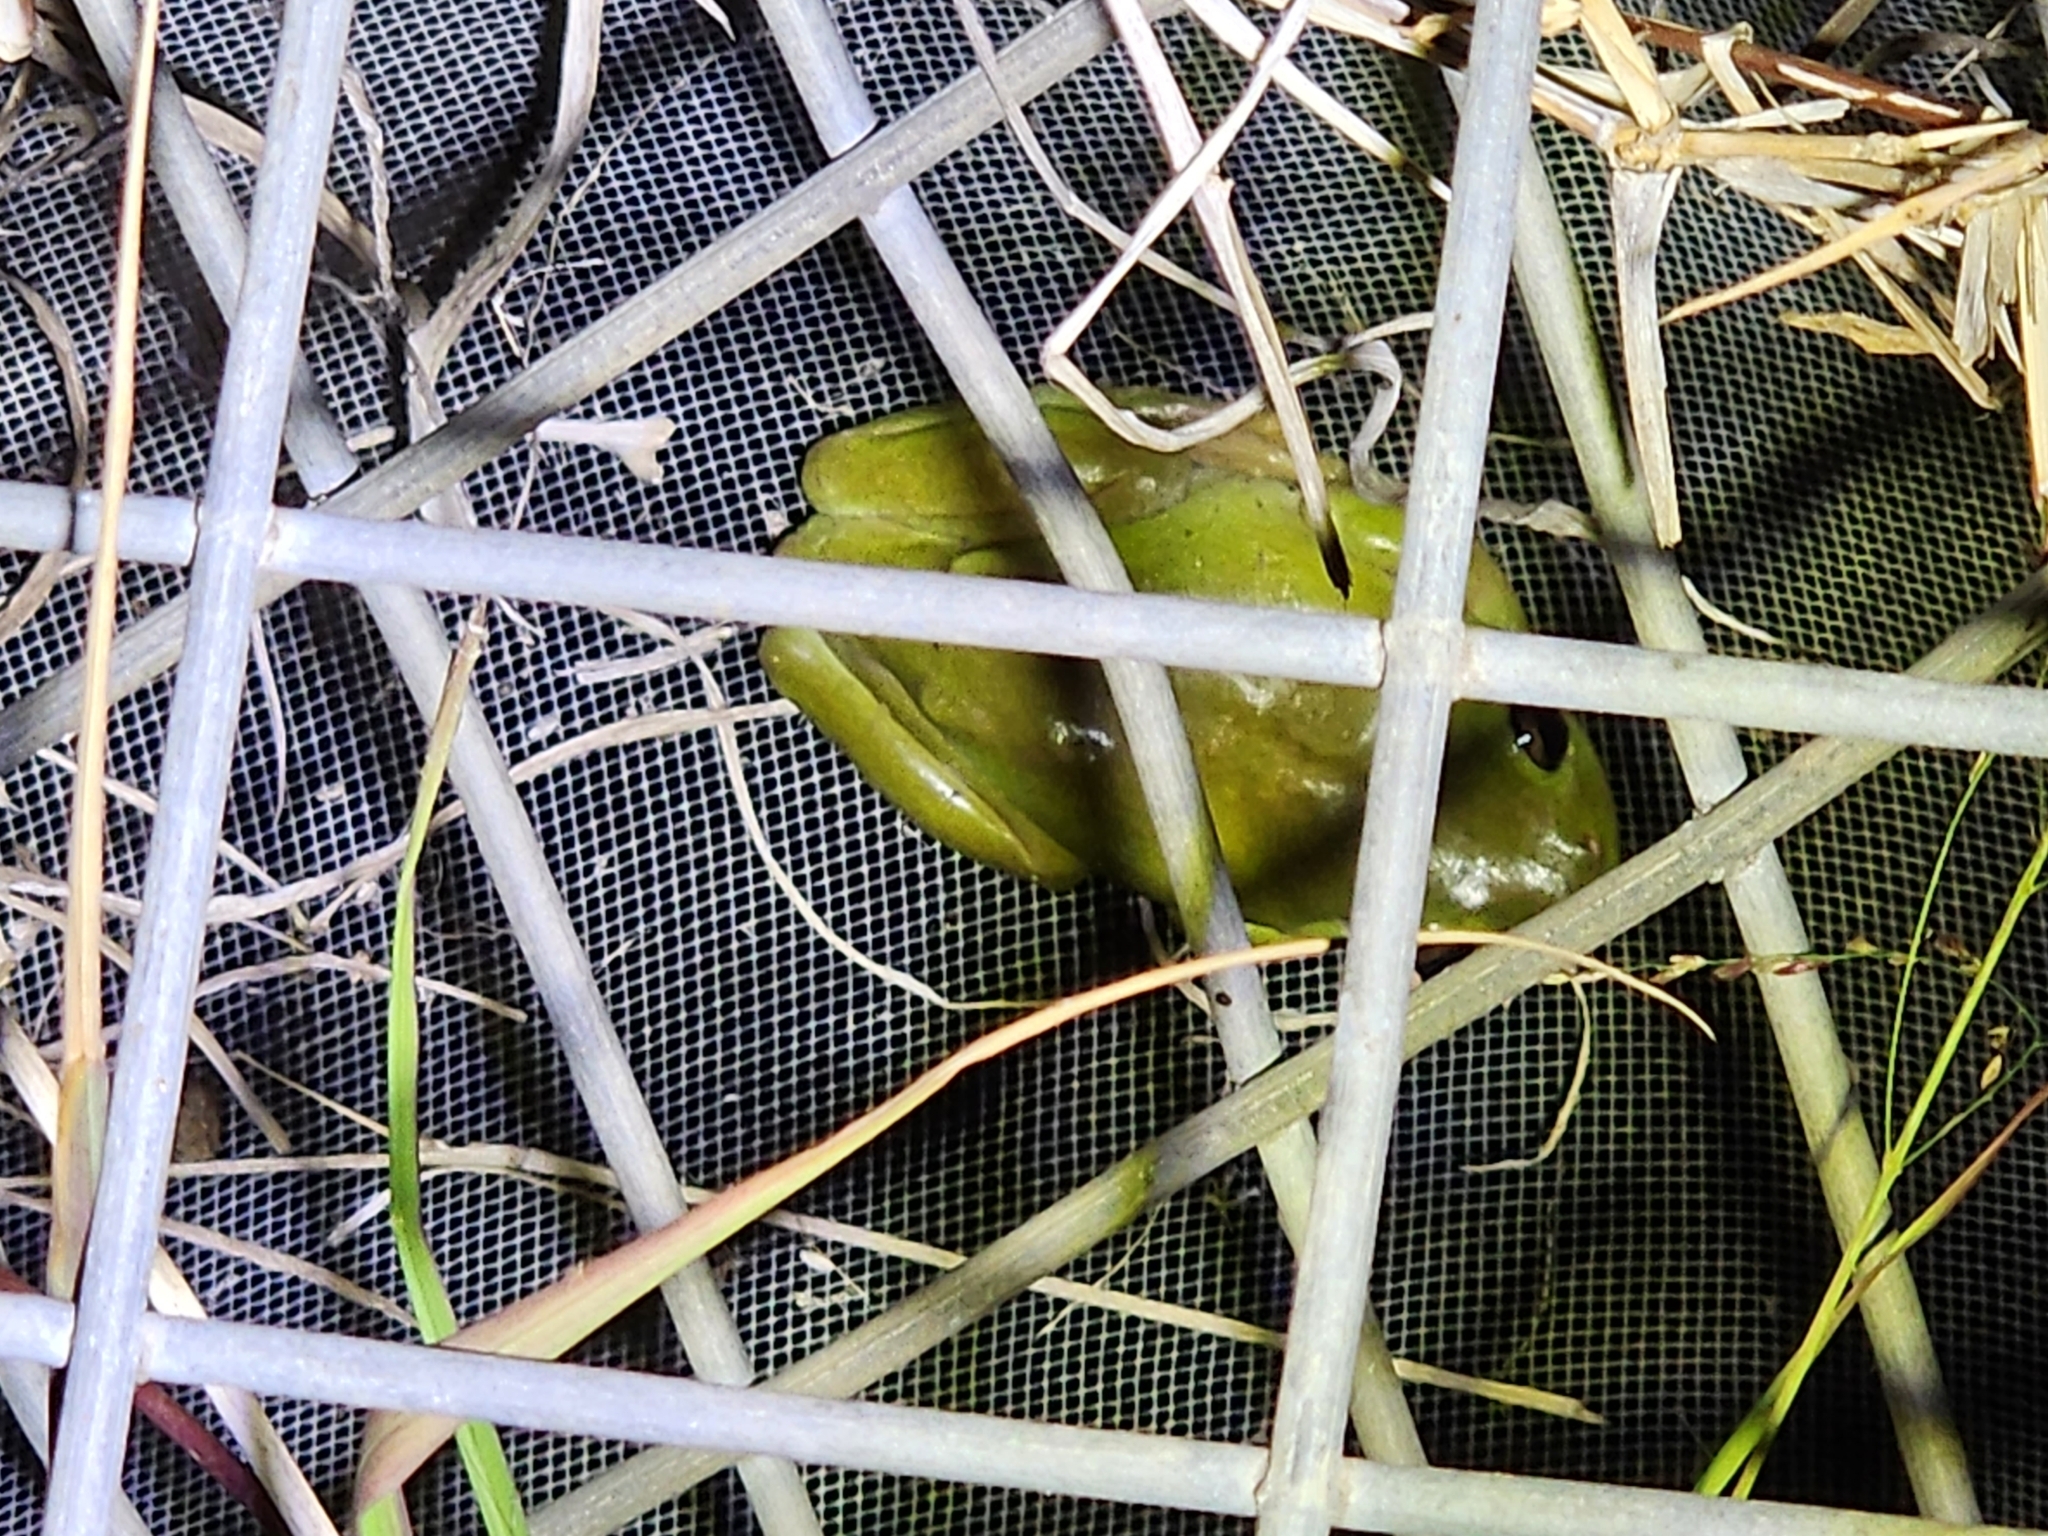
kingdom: Animalia
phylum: Chordata
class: Amphibia
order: Anura
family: Pelodryadidae
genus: Ranoidea
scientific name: Ranoidea caerulea
